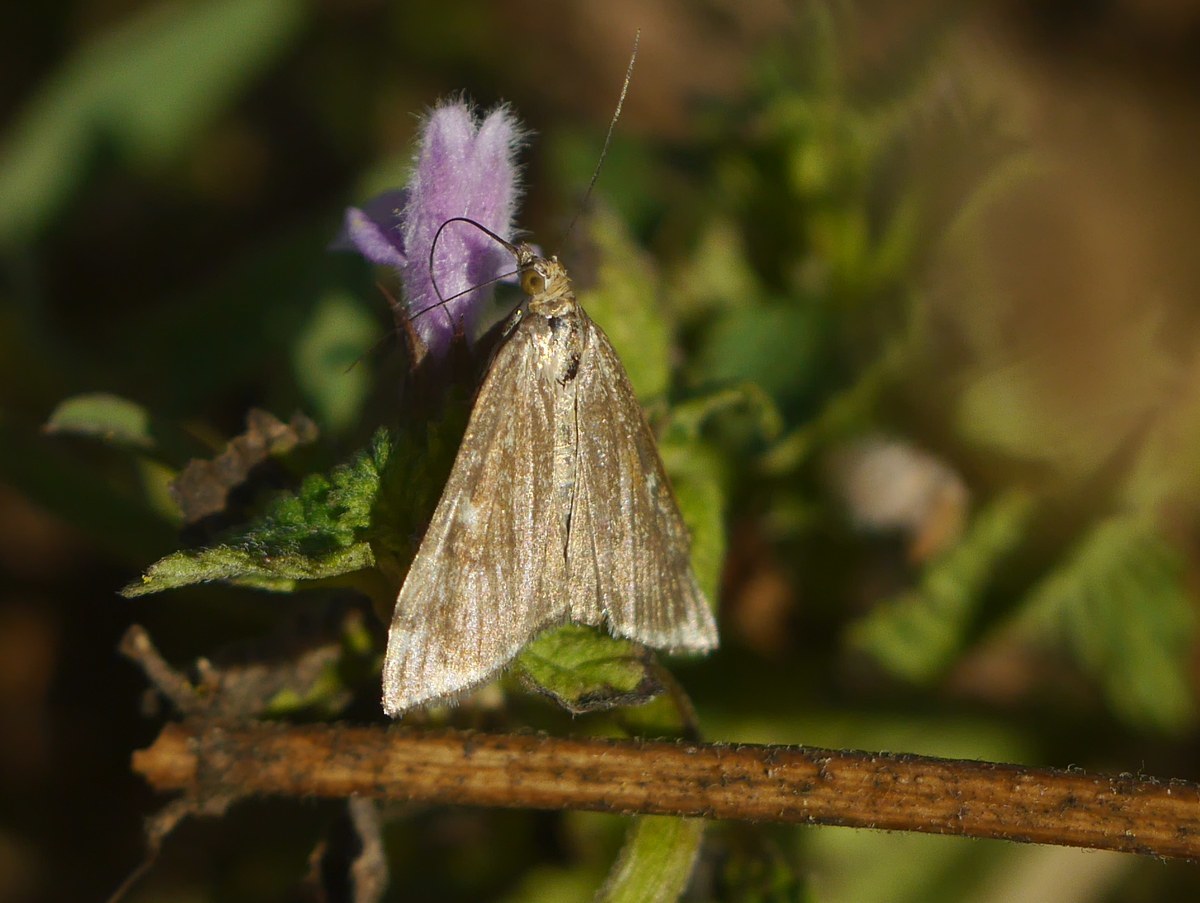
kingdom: Animalia
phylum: Arthropoda
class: Insecta
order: Lepidoptera
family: Crambidae
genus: Loxostege
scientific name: Loxostege sticticalis
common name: Crambid moth
